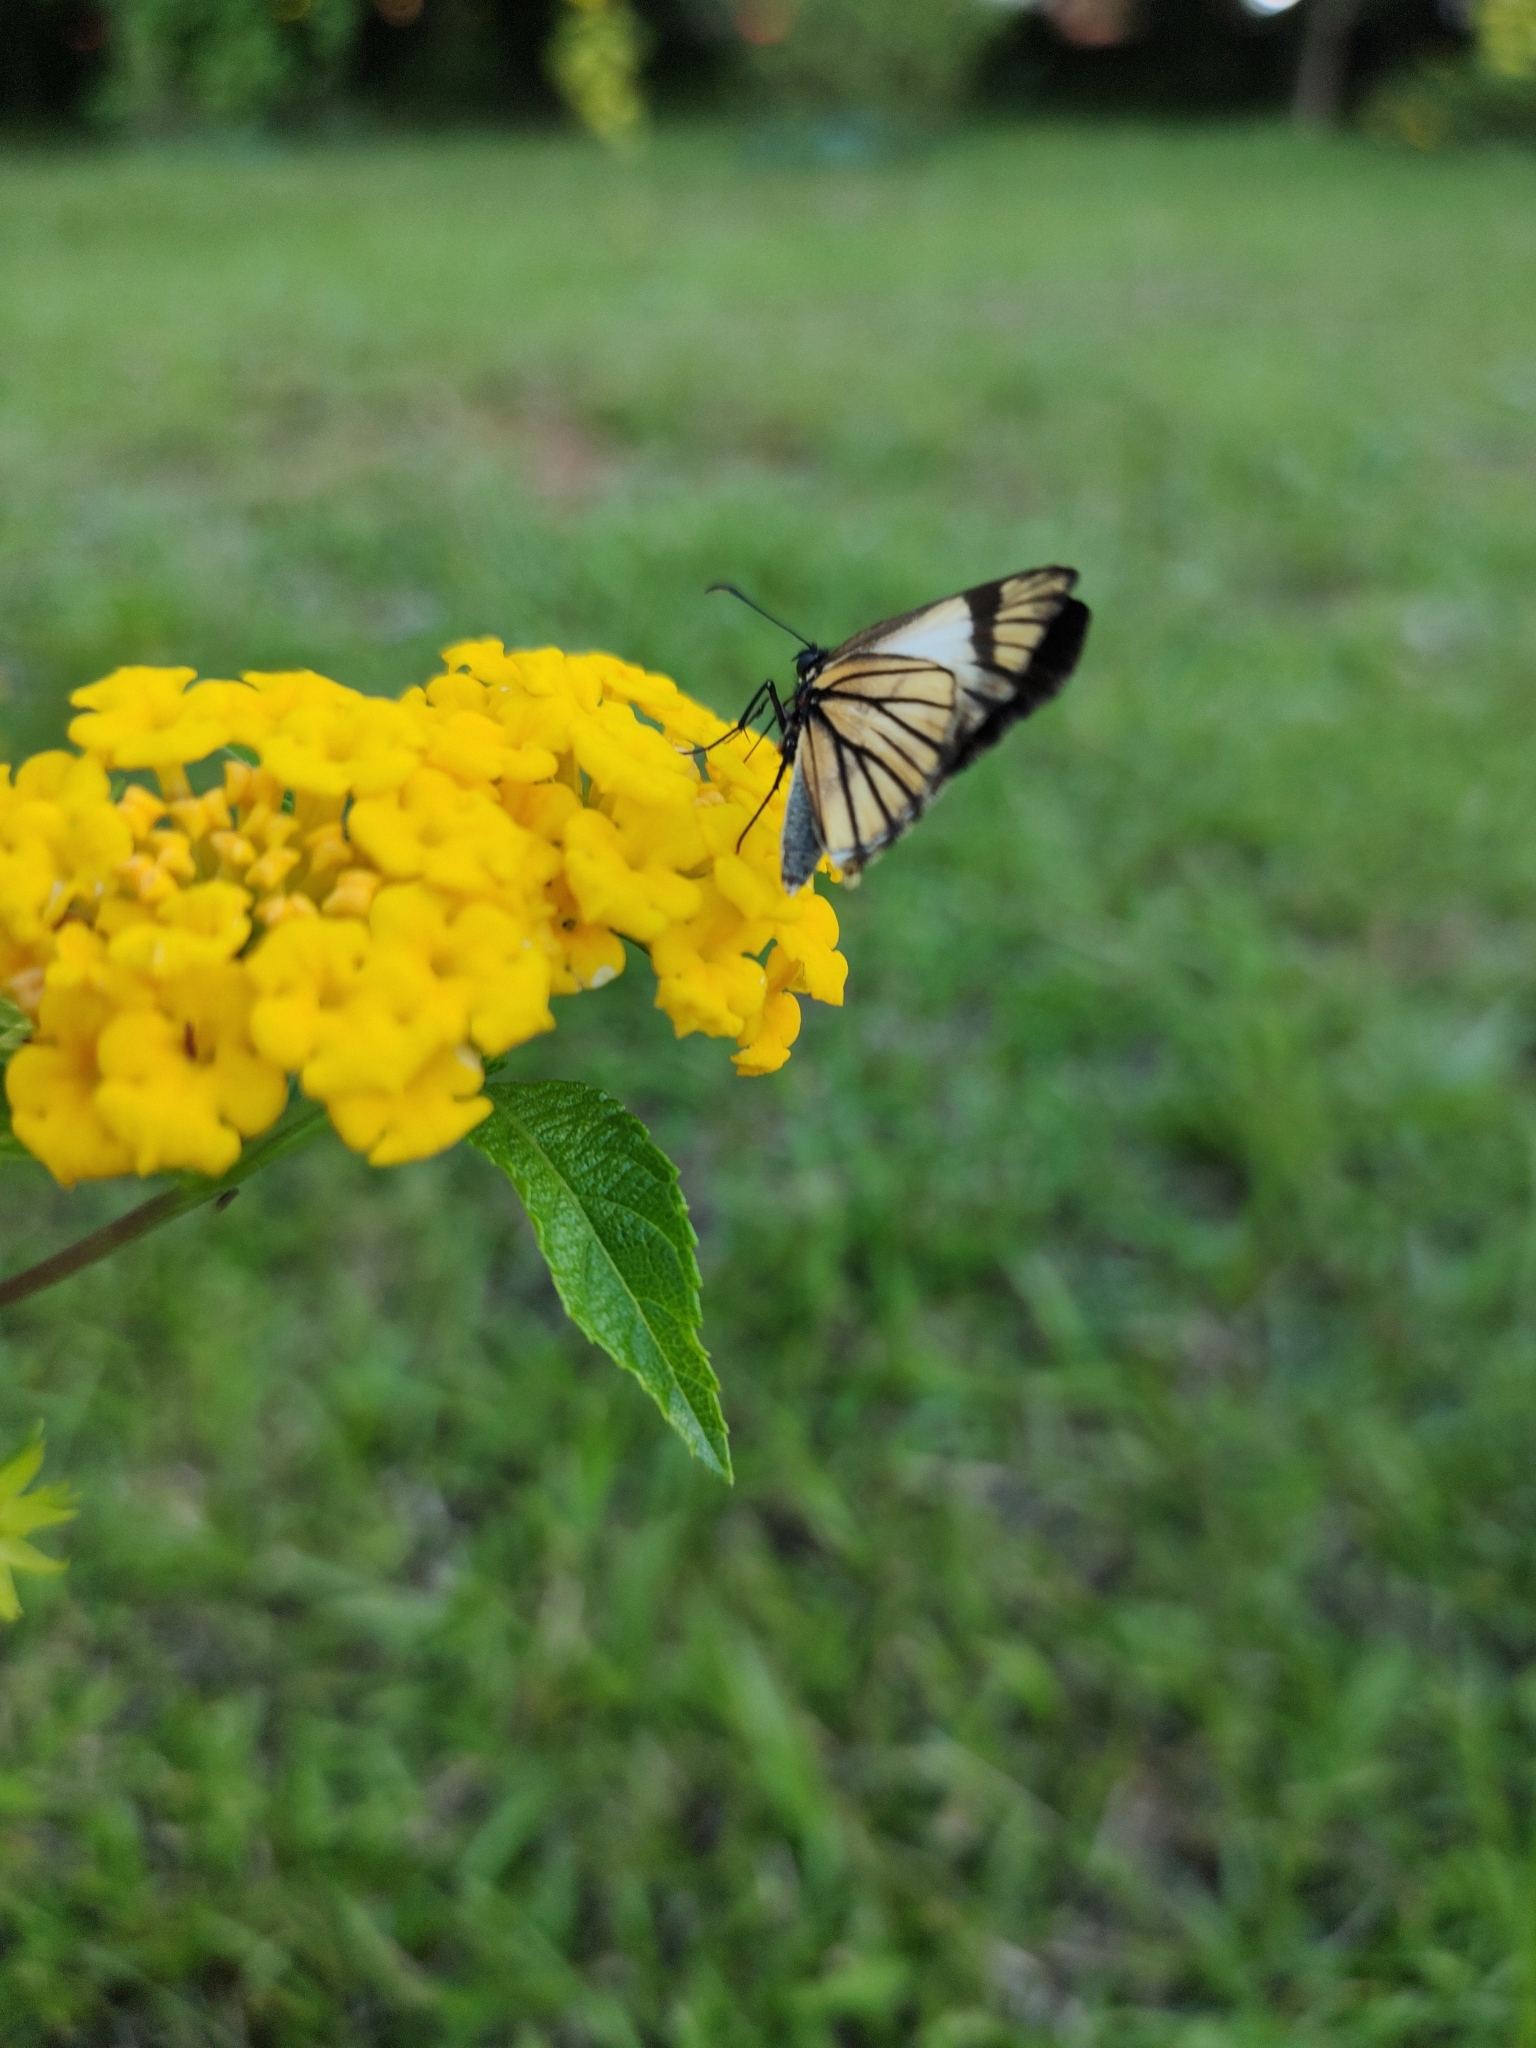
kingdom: Animalia
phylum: Arthropoda
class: Insecta
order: Lepidoptera
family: Hesperiidae
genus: Heliopetes
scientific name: Heliopetes alana
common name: Alana white-skipper
